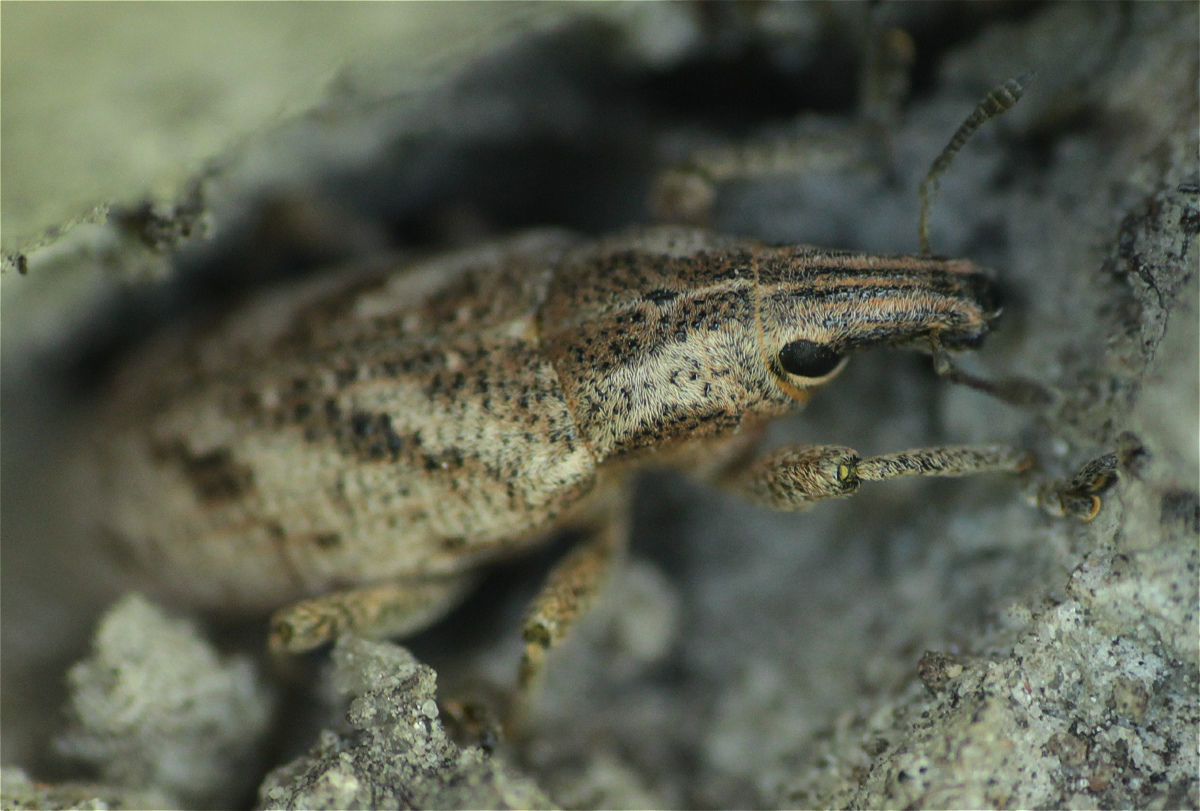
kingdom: Animalia
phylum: Arthropoda
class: Insecta
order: Coleoptera
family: Curculionidae
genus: Cleonis
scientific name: Cleonis pigra
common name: Large thistle weevil
